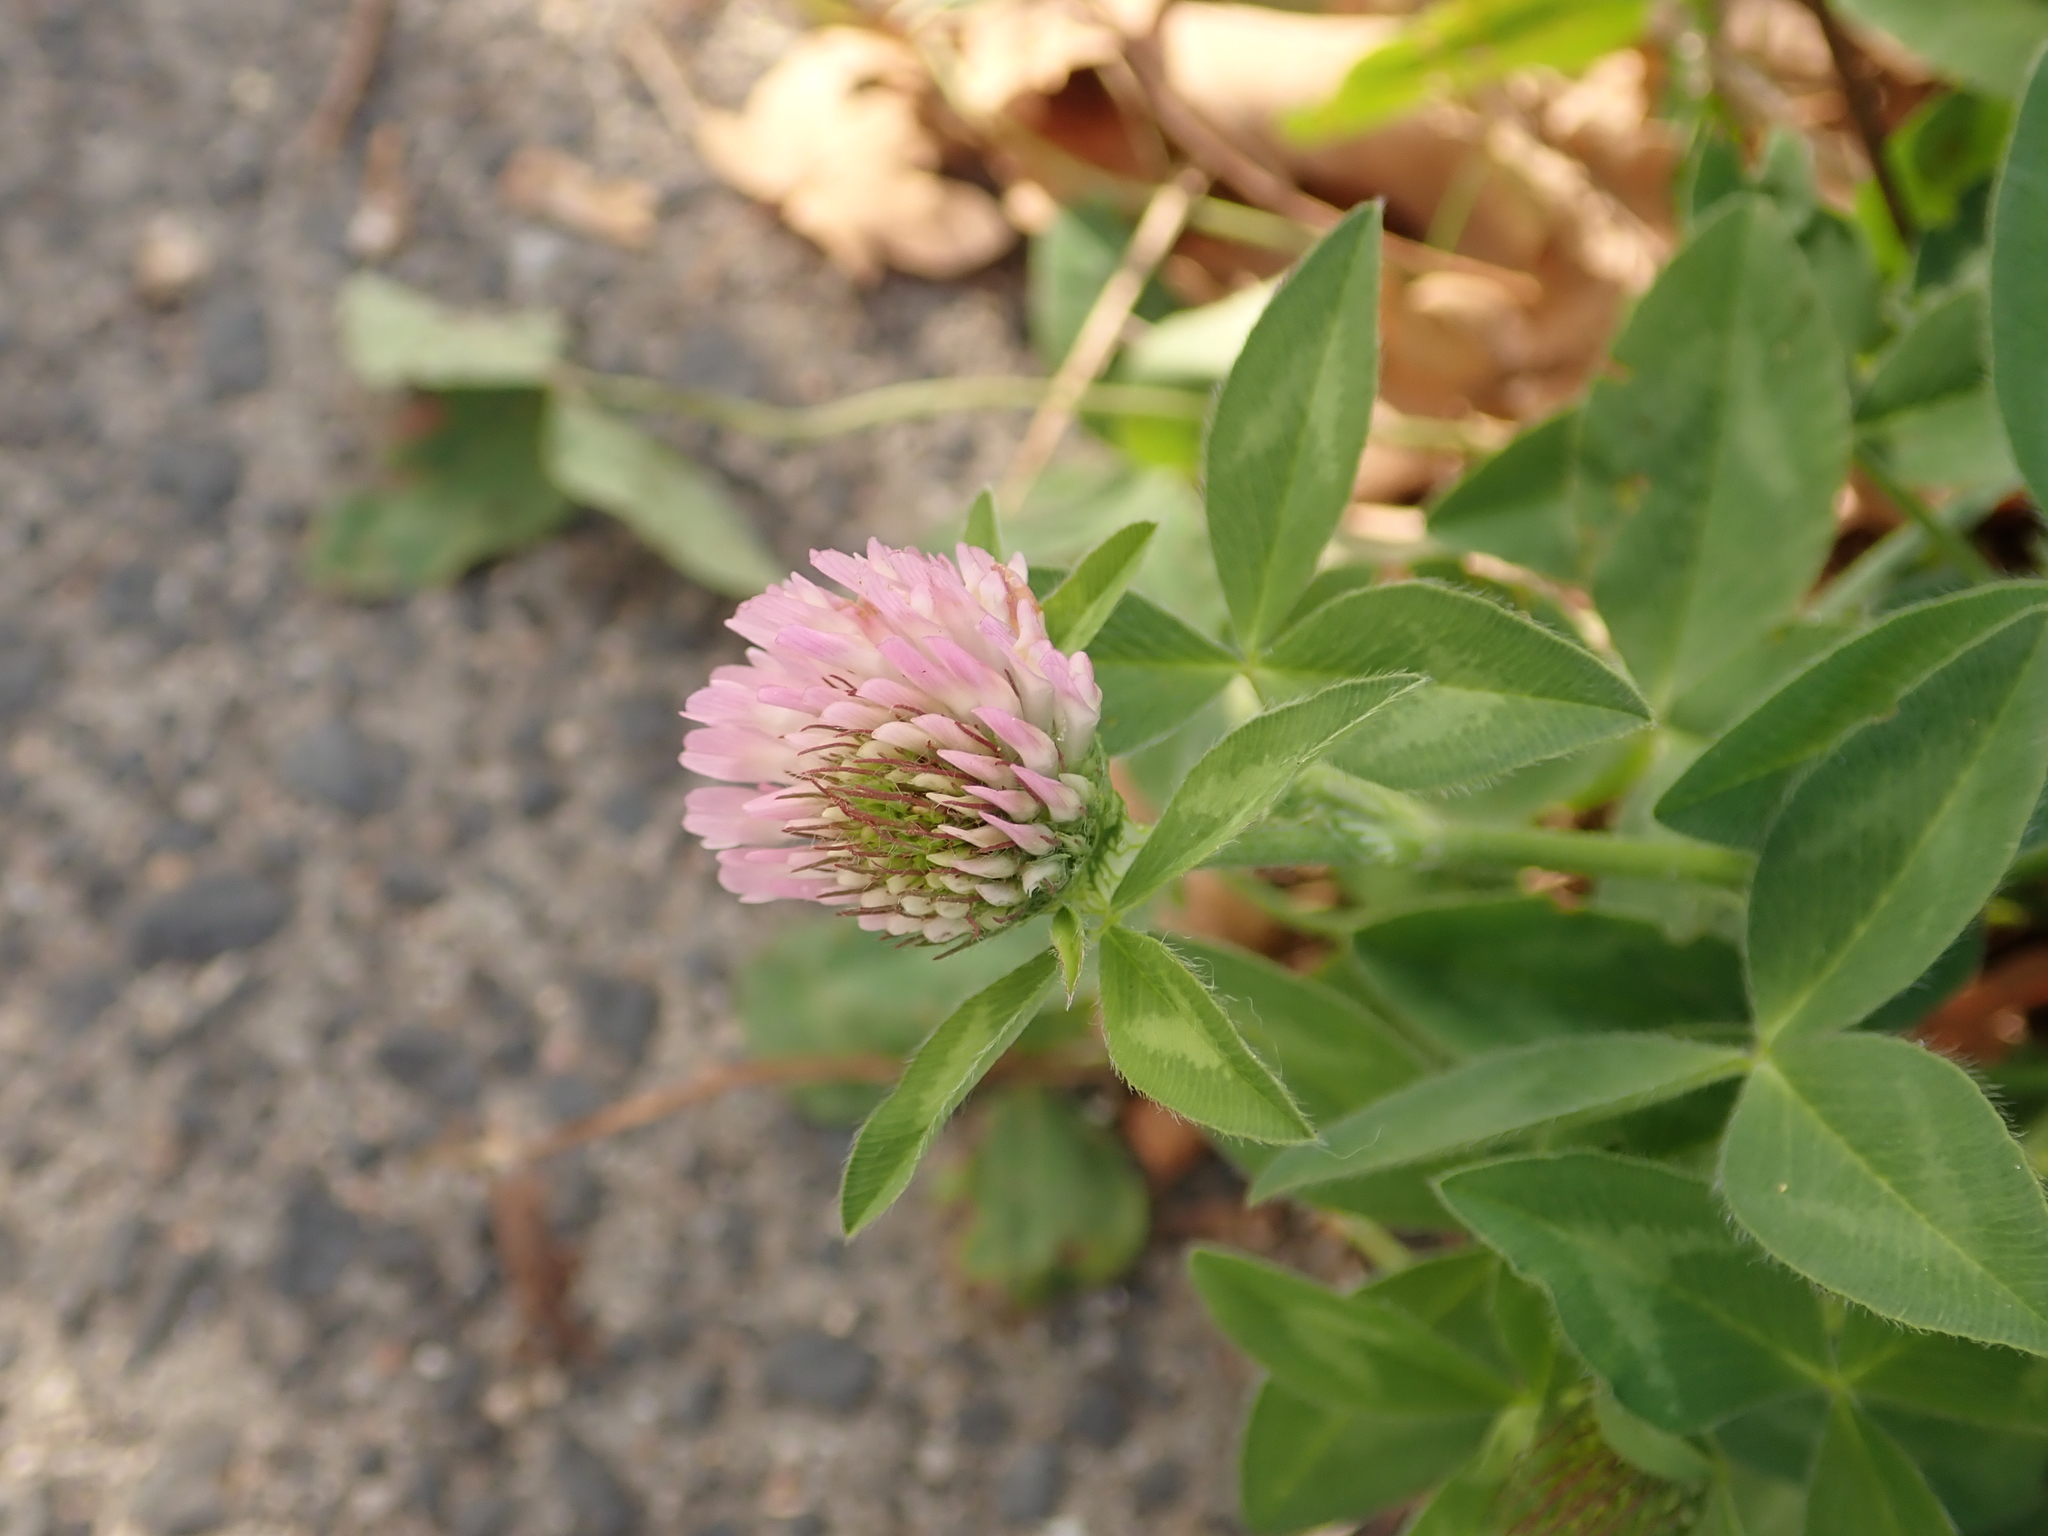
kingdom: Plantae
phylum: Tracheophyta
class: Magnoliopsida
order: Fabales
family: Fabaceae
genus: Trifolium
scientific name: Trifolium pratense
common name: Red clover
